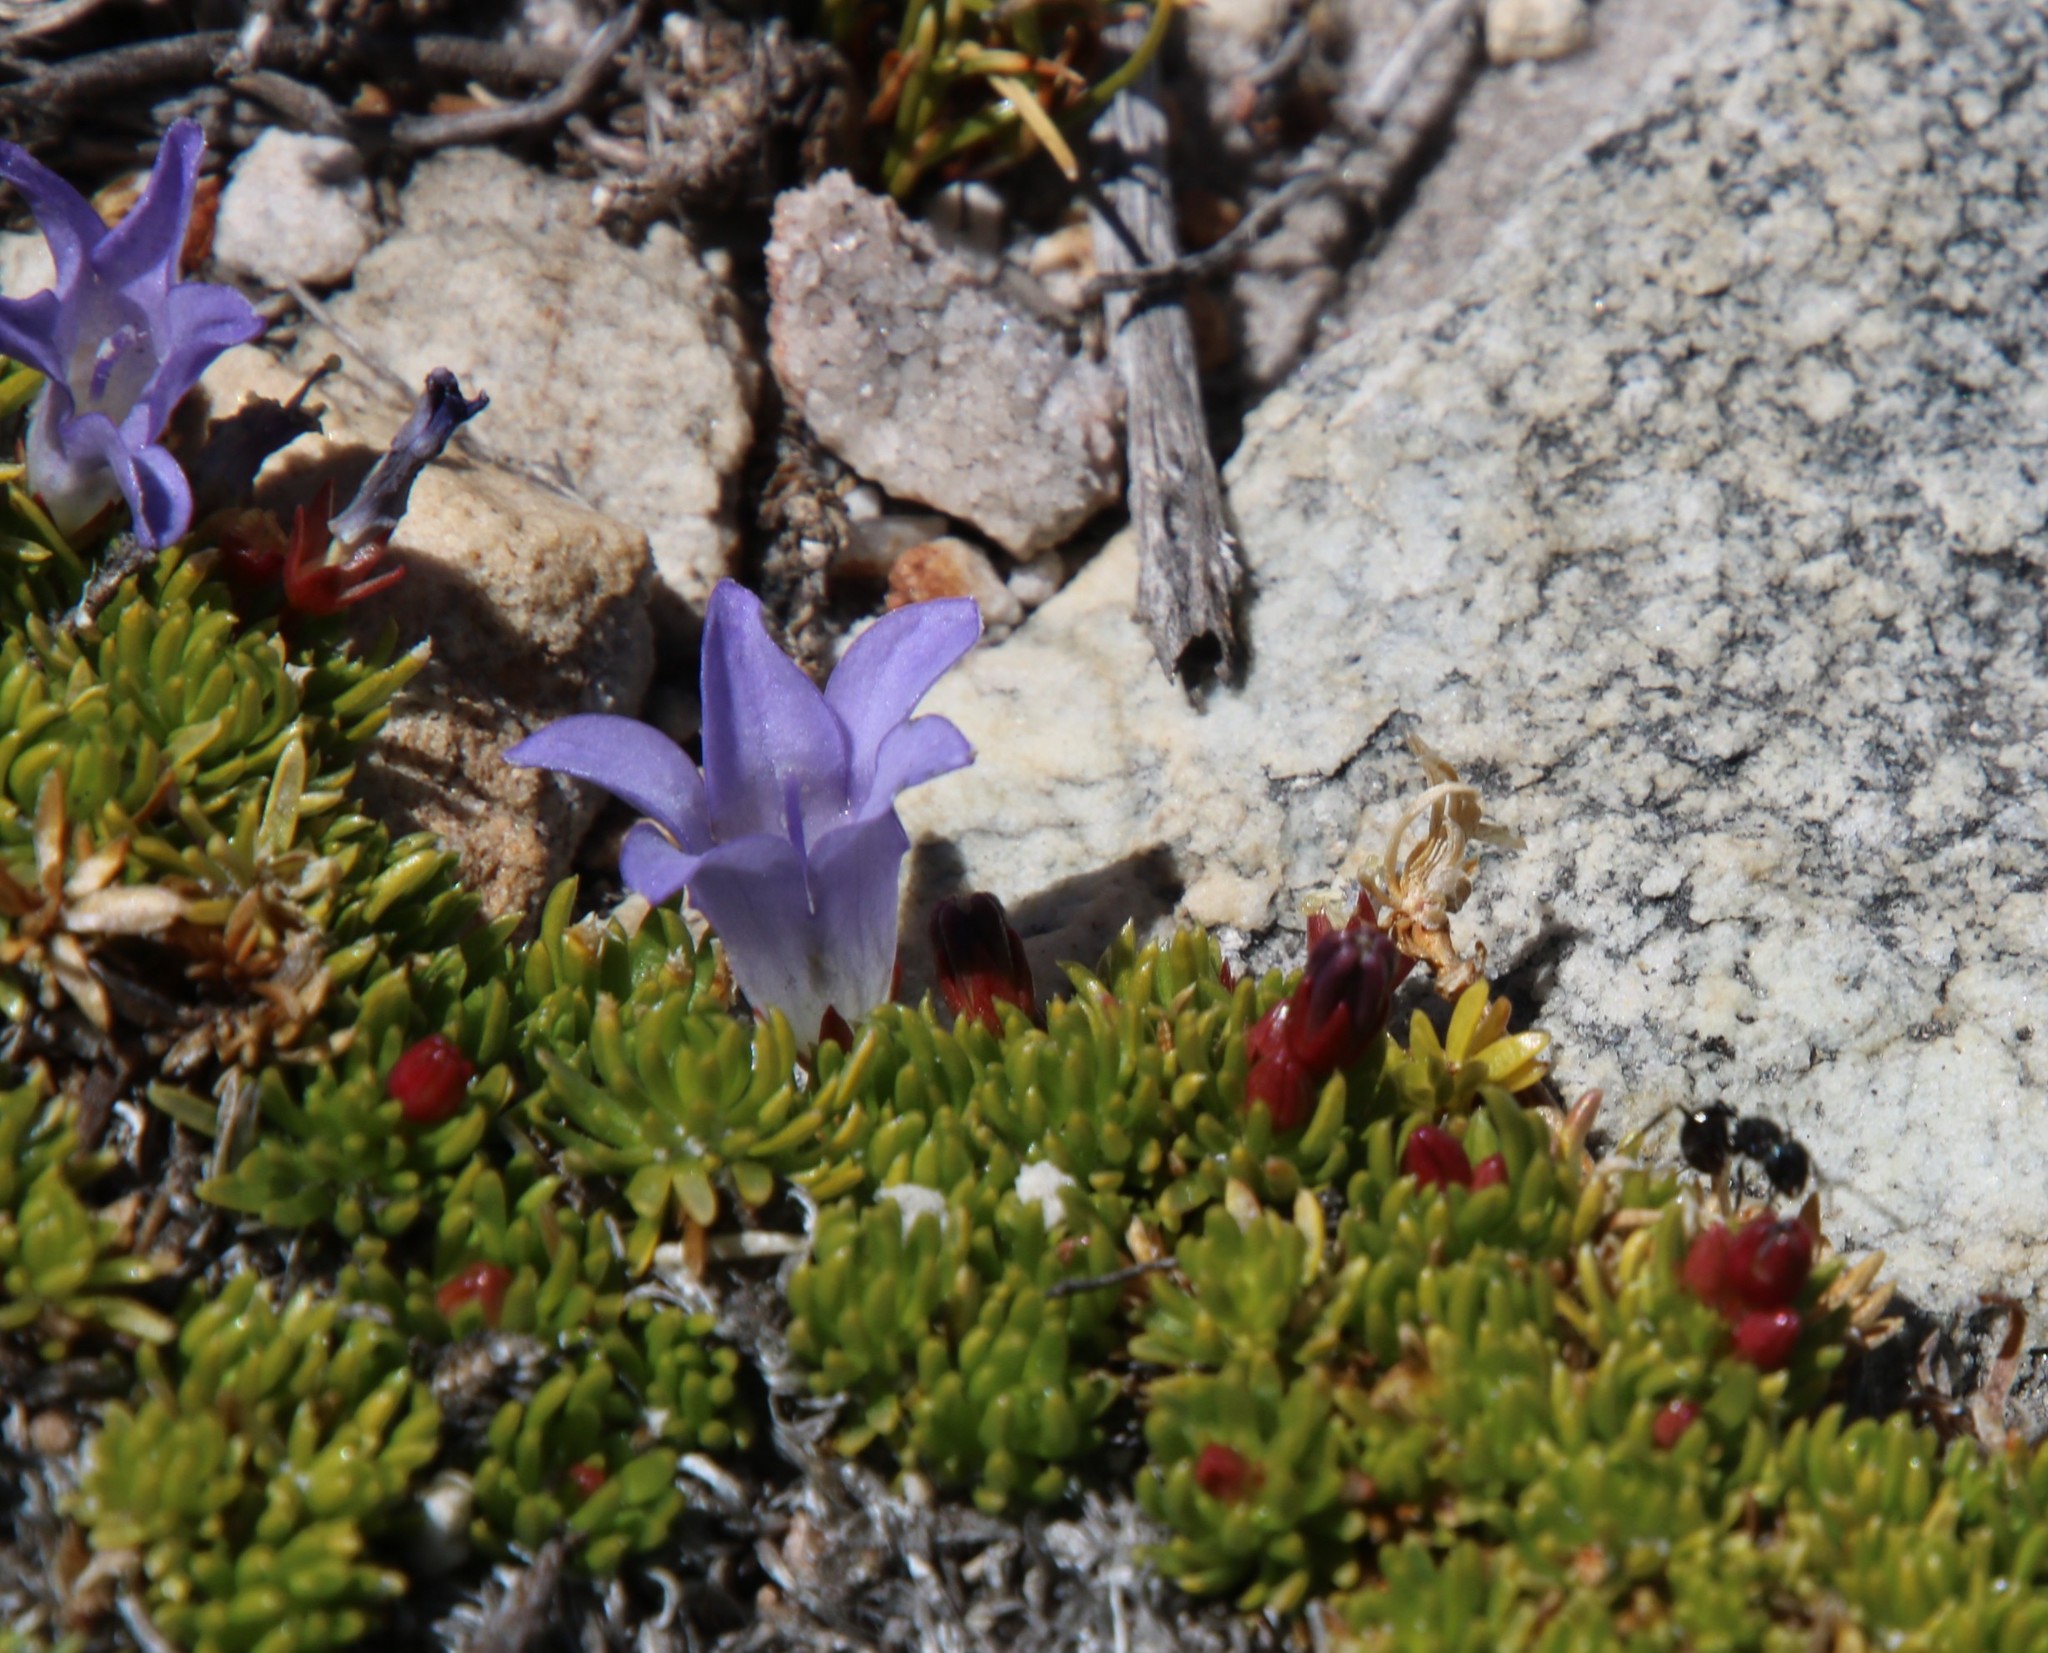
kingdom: Plantae
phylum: Tracheophyta
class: Magnoliopsida
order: Asterales
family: Campanulaceae
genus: Prismatocarpus
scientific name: Prismatocarpus alpinus
